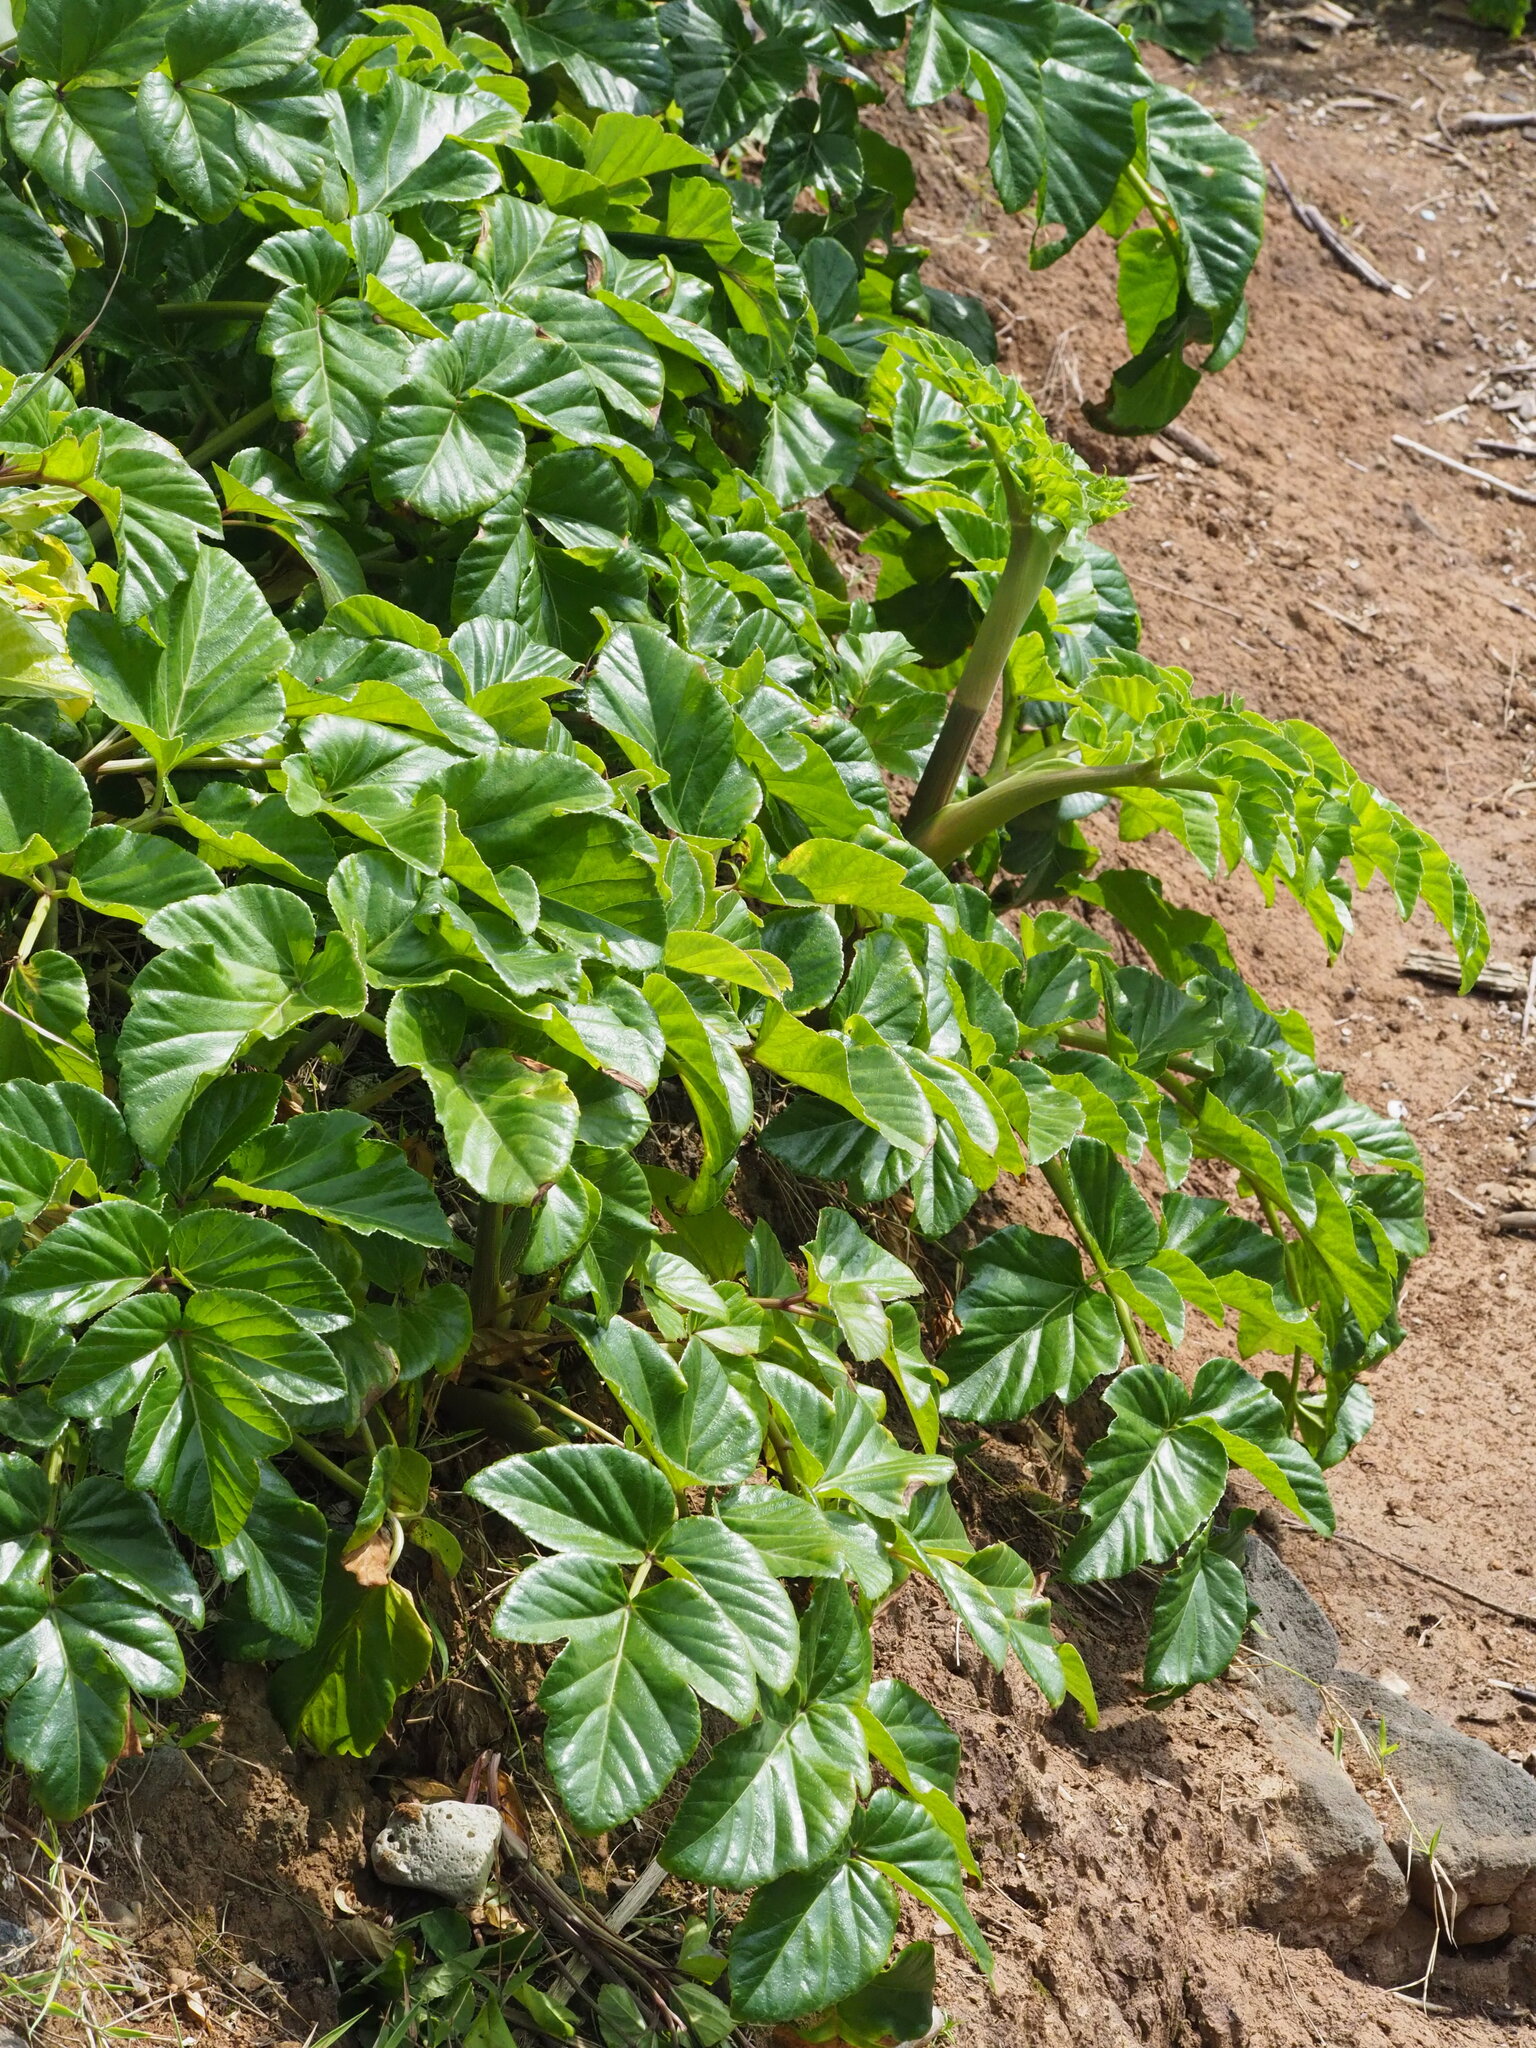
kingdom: Plantae
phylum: Tracheophyta
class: Magnoliopsida
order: Apiales
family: Apiaceae
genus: Angelica
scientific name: Angelica hirsutiflora
